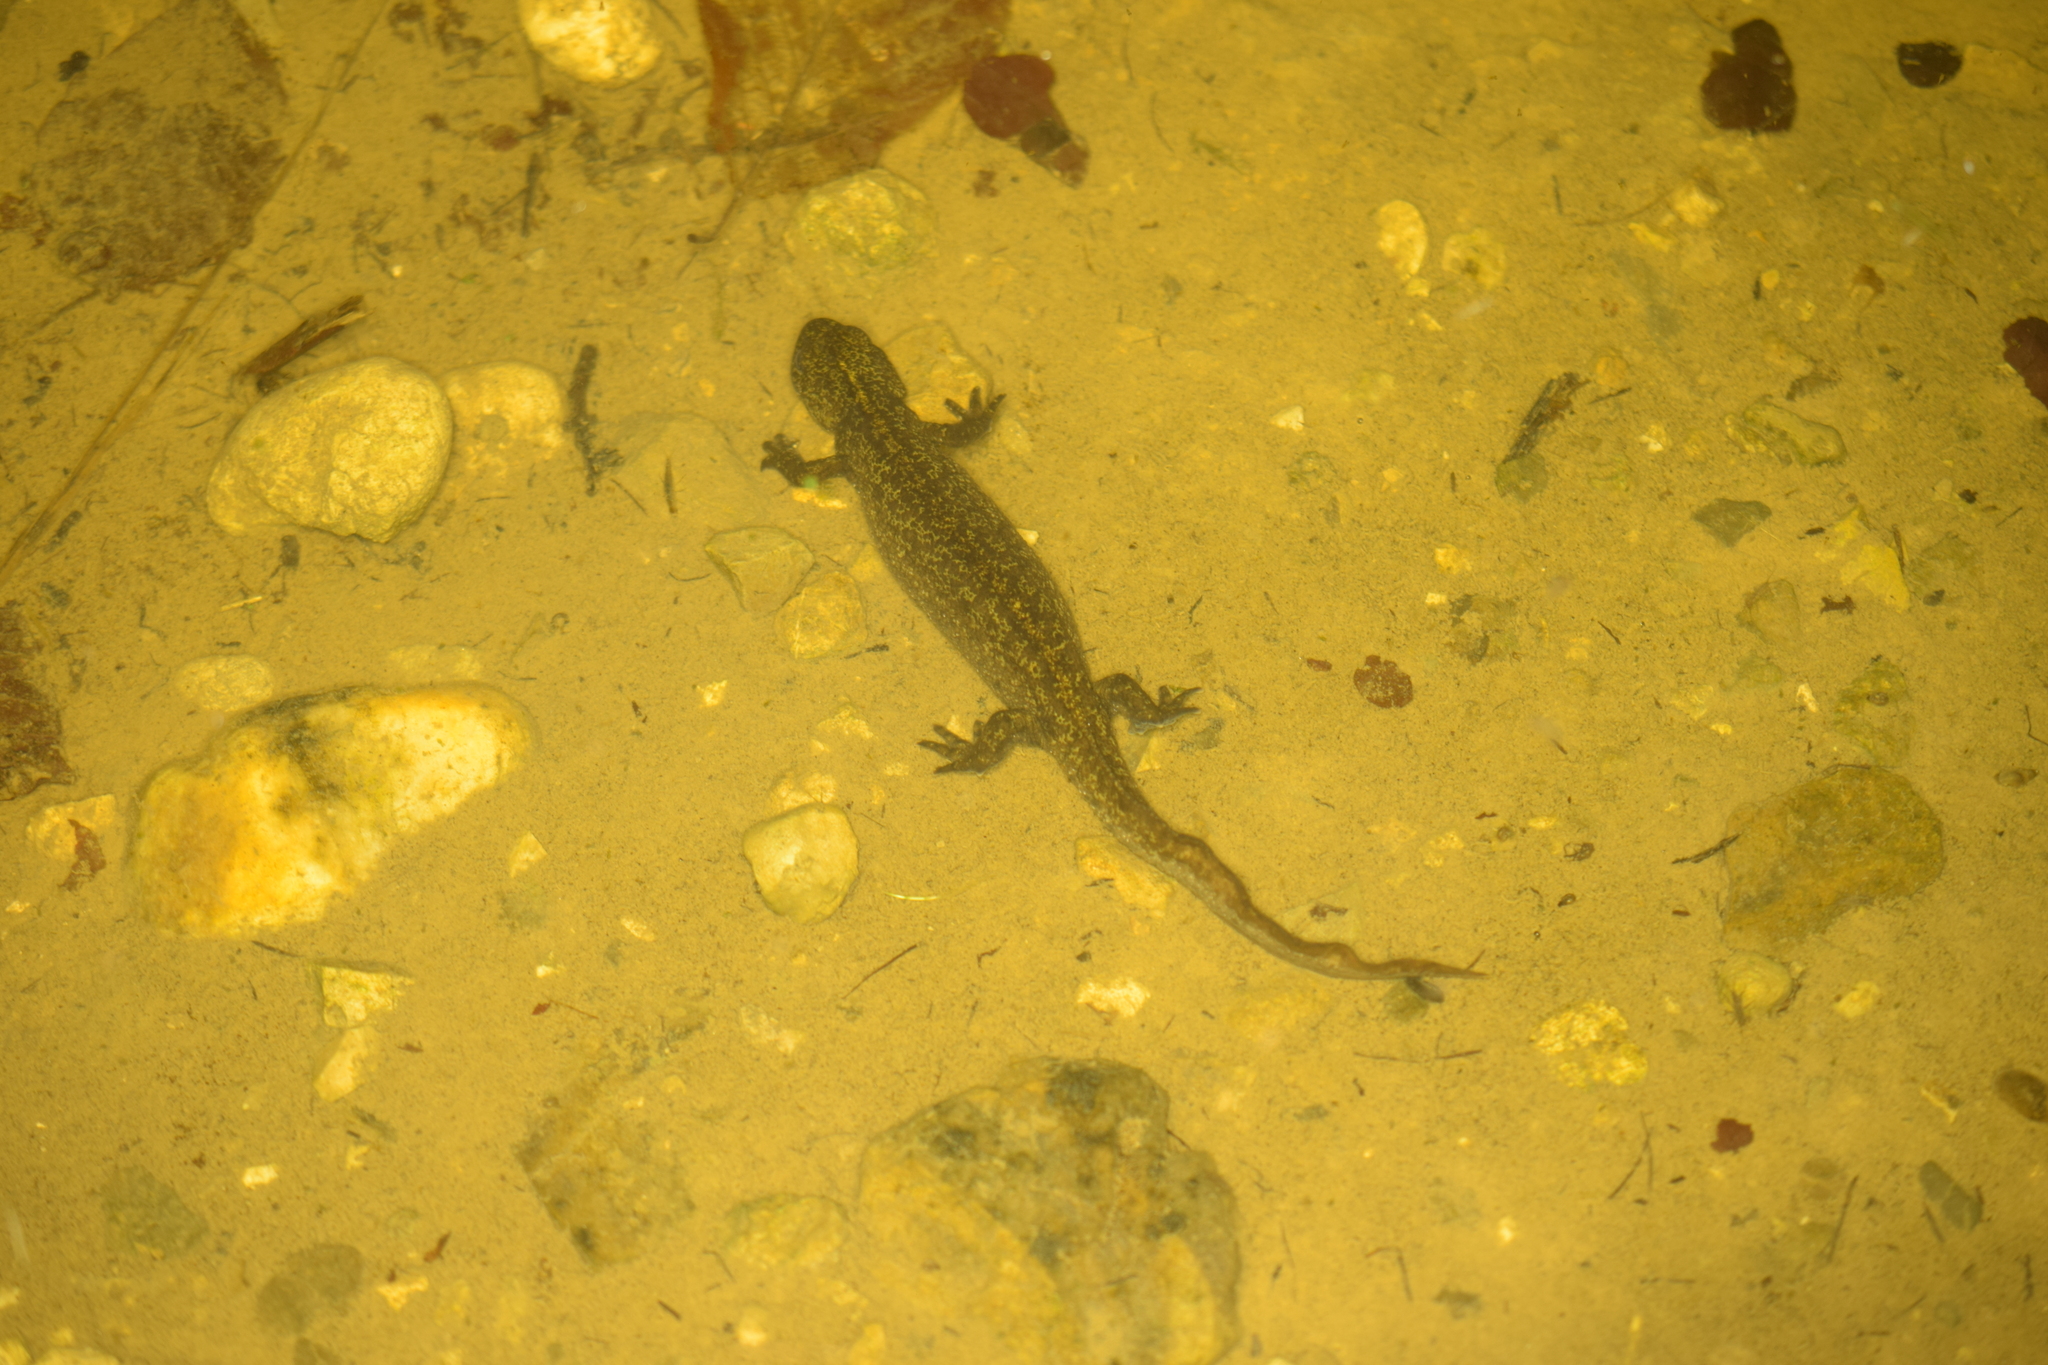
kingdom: Animalia
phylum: Chordata
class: Amphibia
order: Caudata
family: Salamandridae
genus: Triturus
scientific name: Triturus carnifex
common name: Italian crested newt
